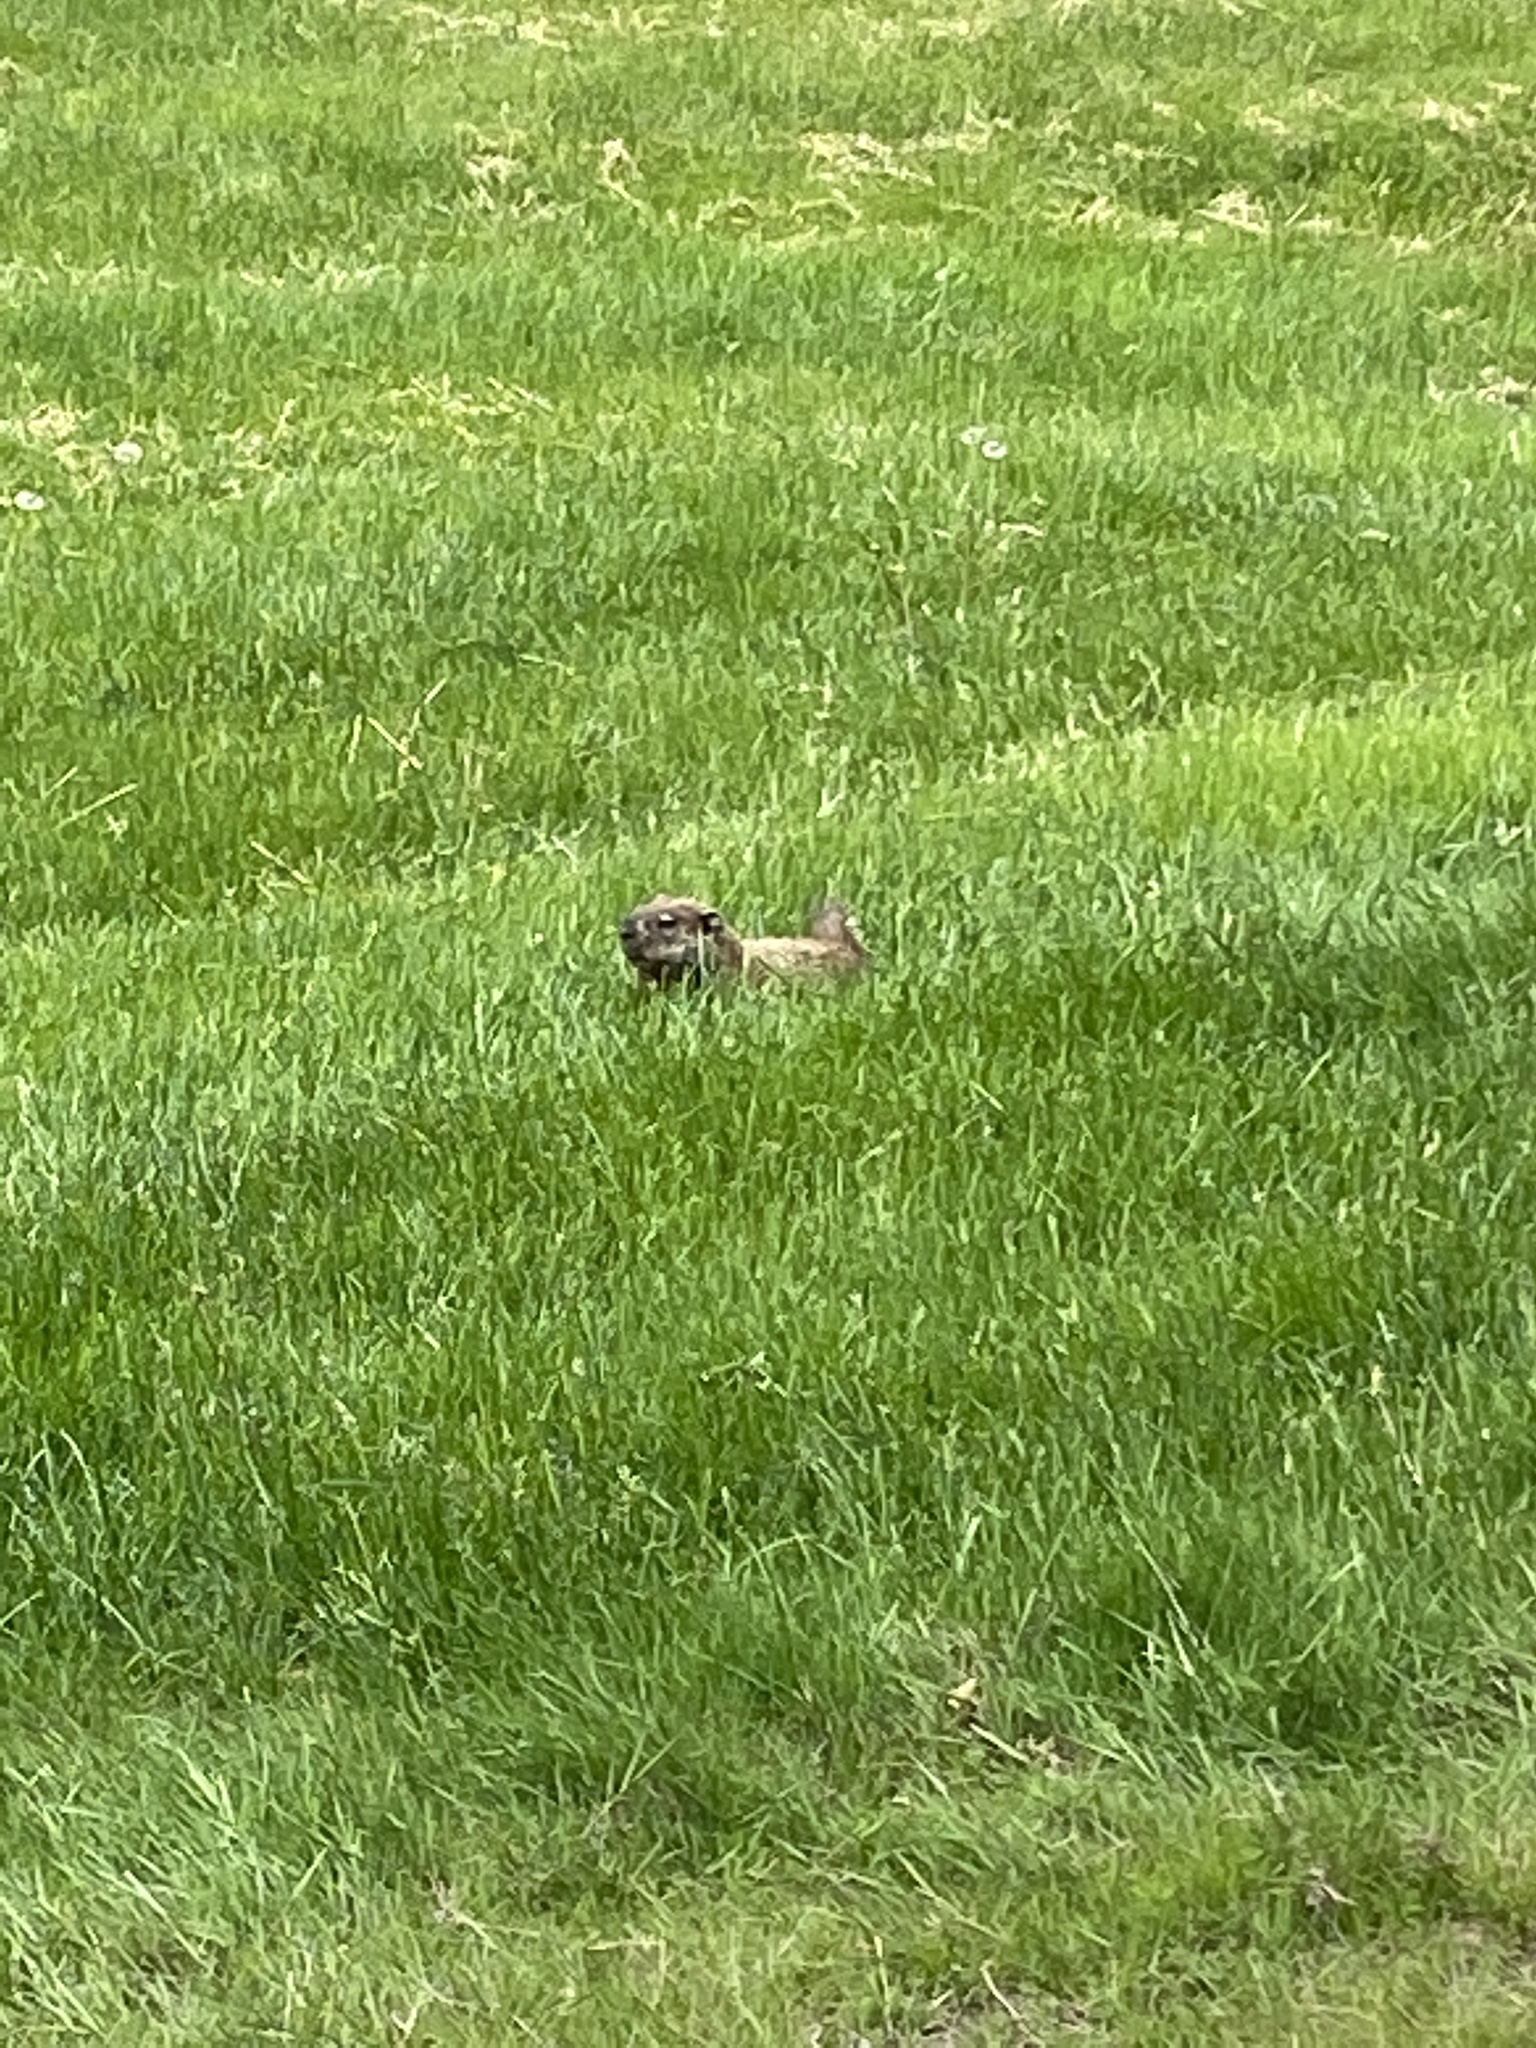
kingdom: Animalia
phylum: Chordata
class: Mammalia
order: Rodentia
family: Sciuridae
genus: Marmota
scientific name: Marmota monax
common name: Groundhog
